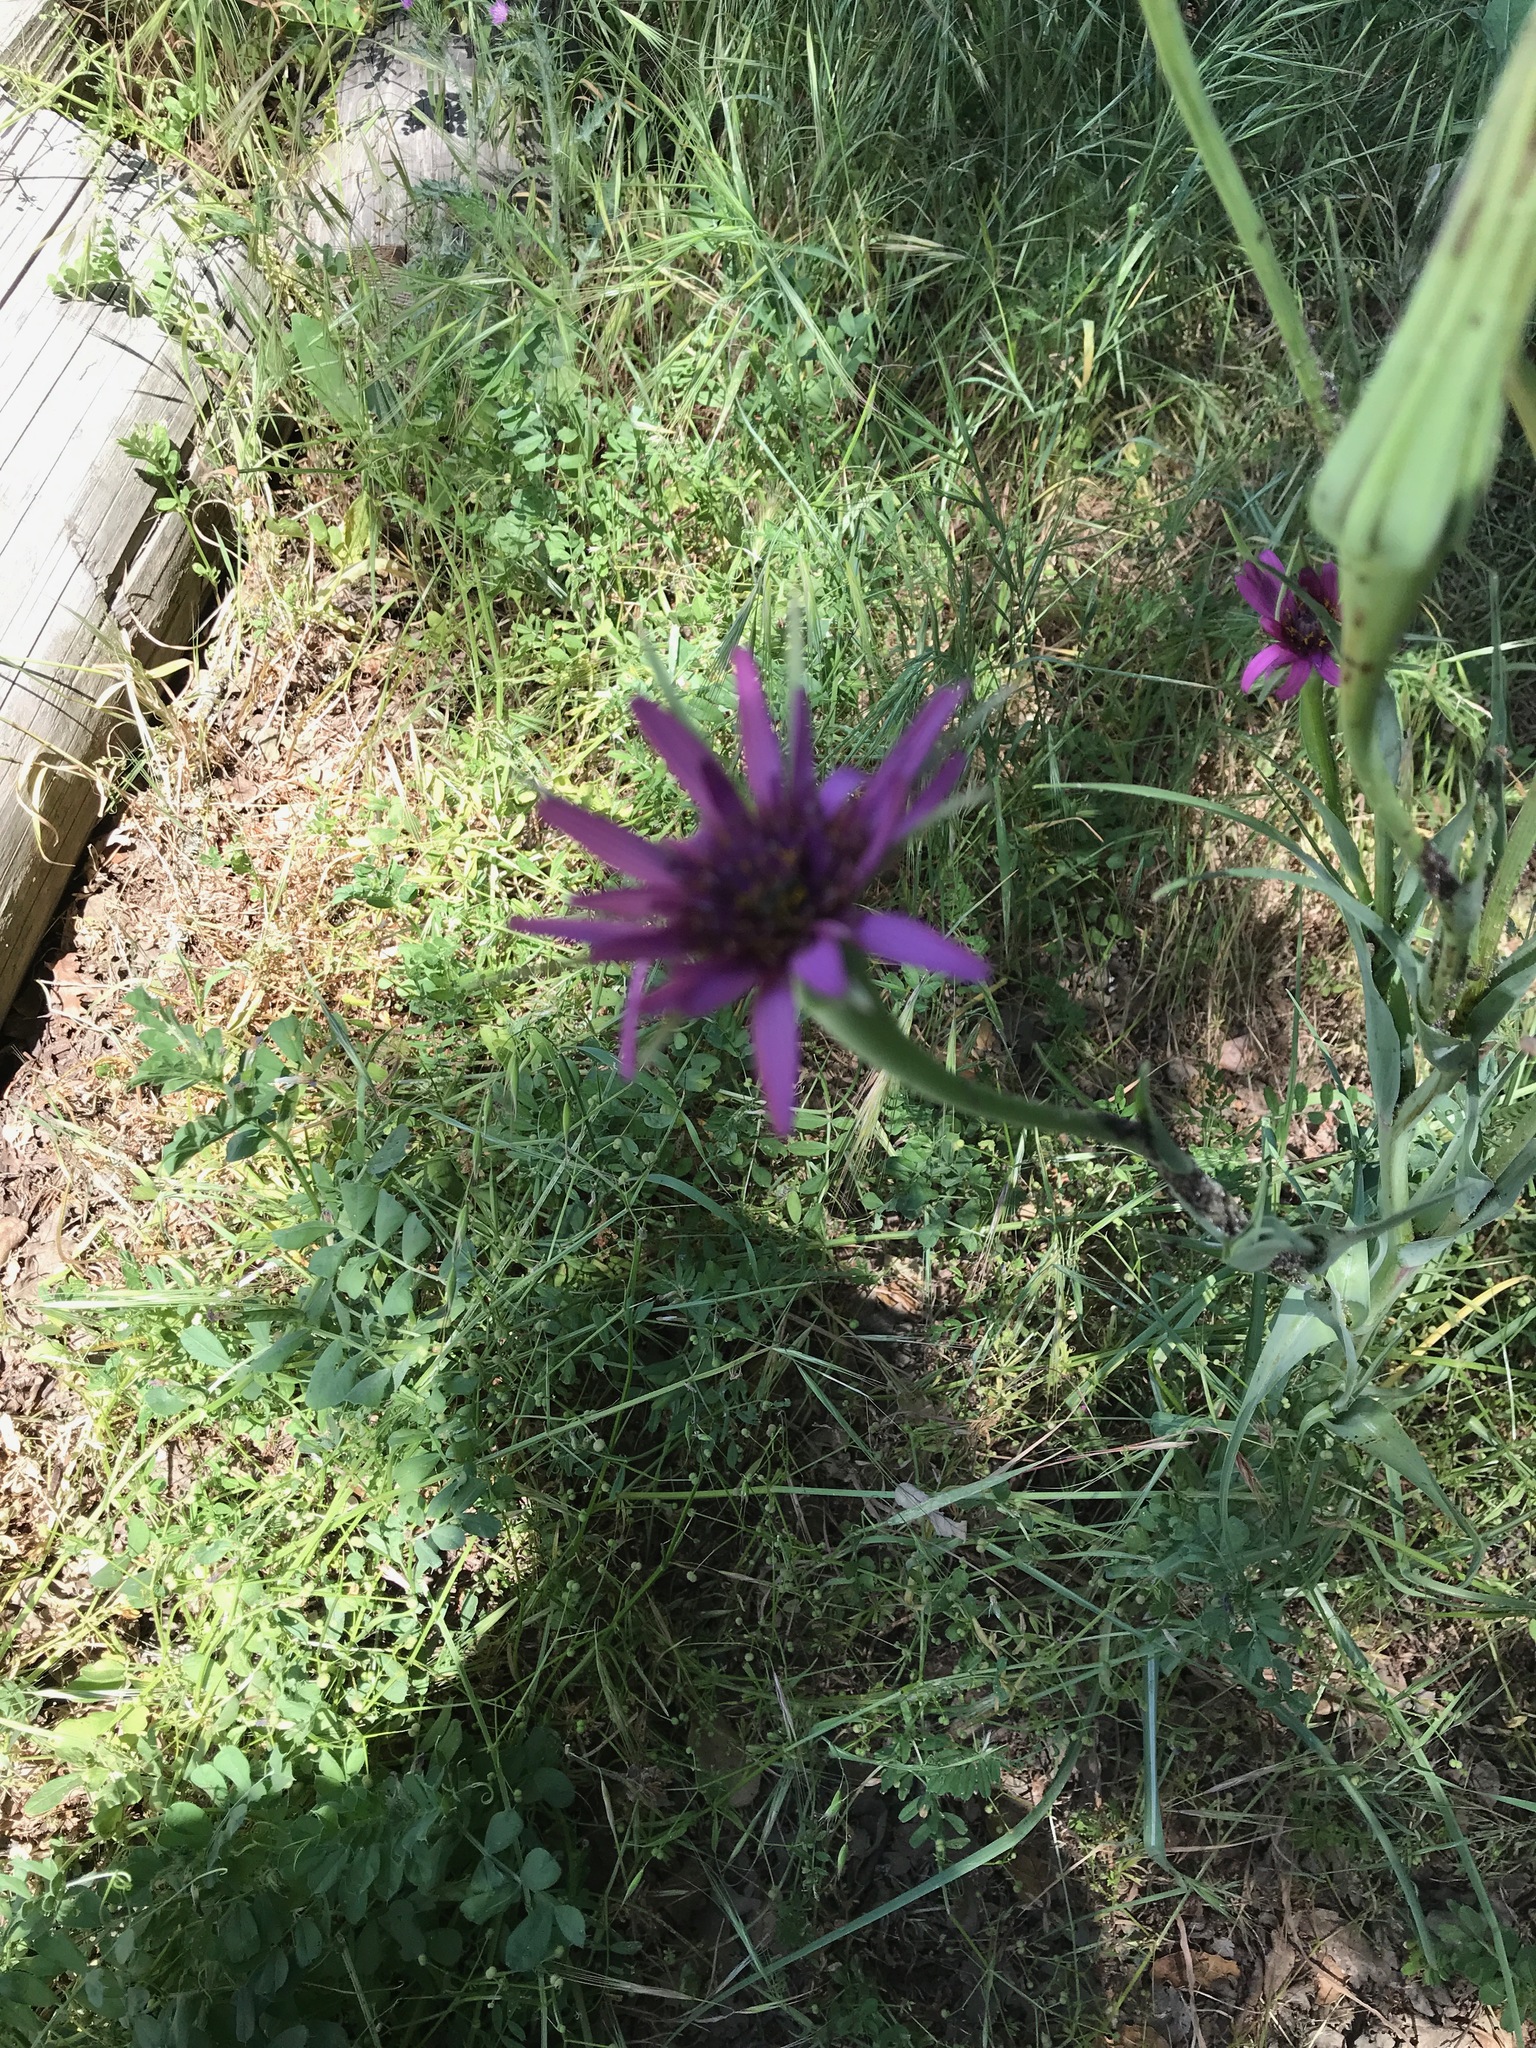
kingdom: Plantae
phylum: Tracheophyta
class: Magnoliopsida
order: Asterales
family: Asteraceae
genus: Tragopogon
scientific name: Tragopogon porrifolius
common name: Salsify
